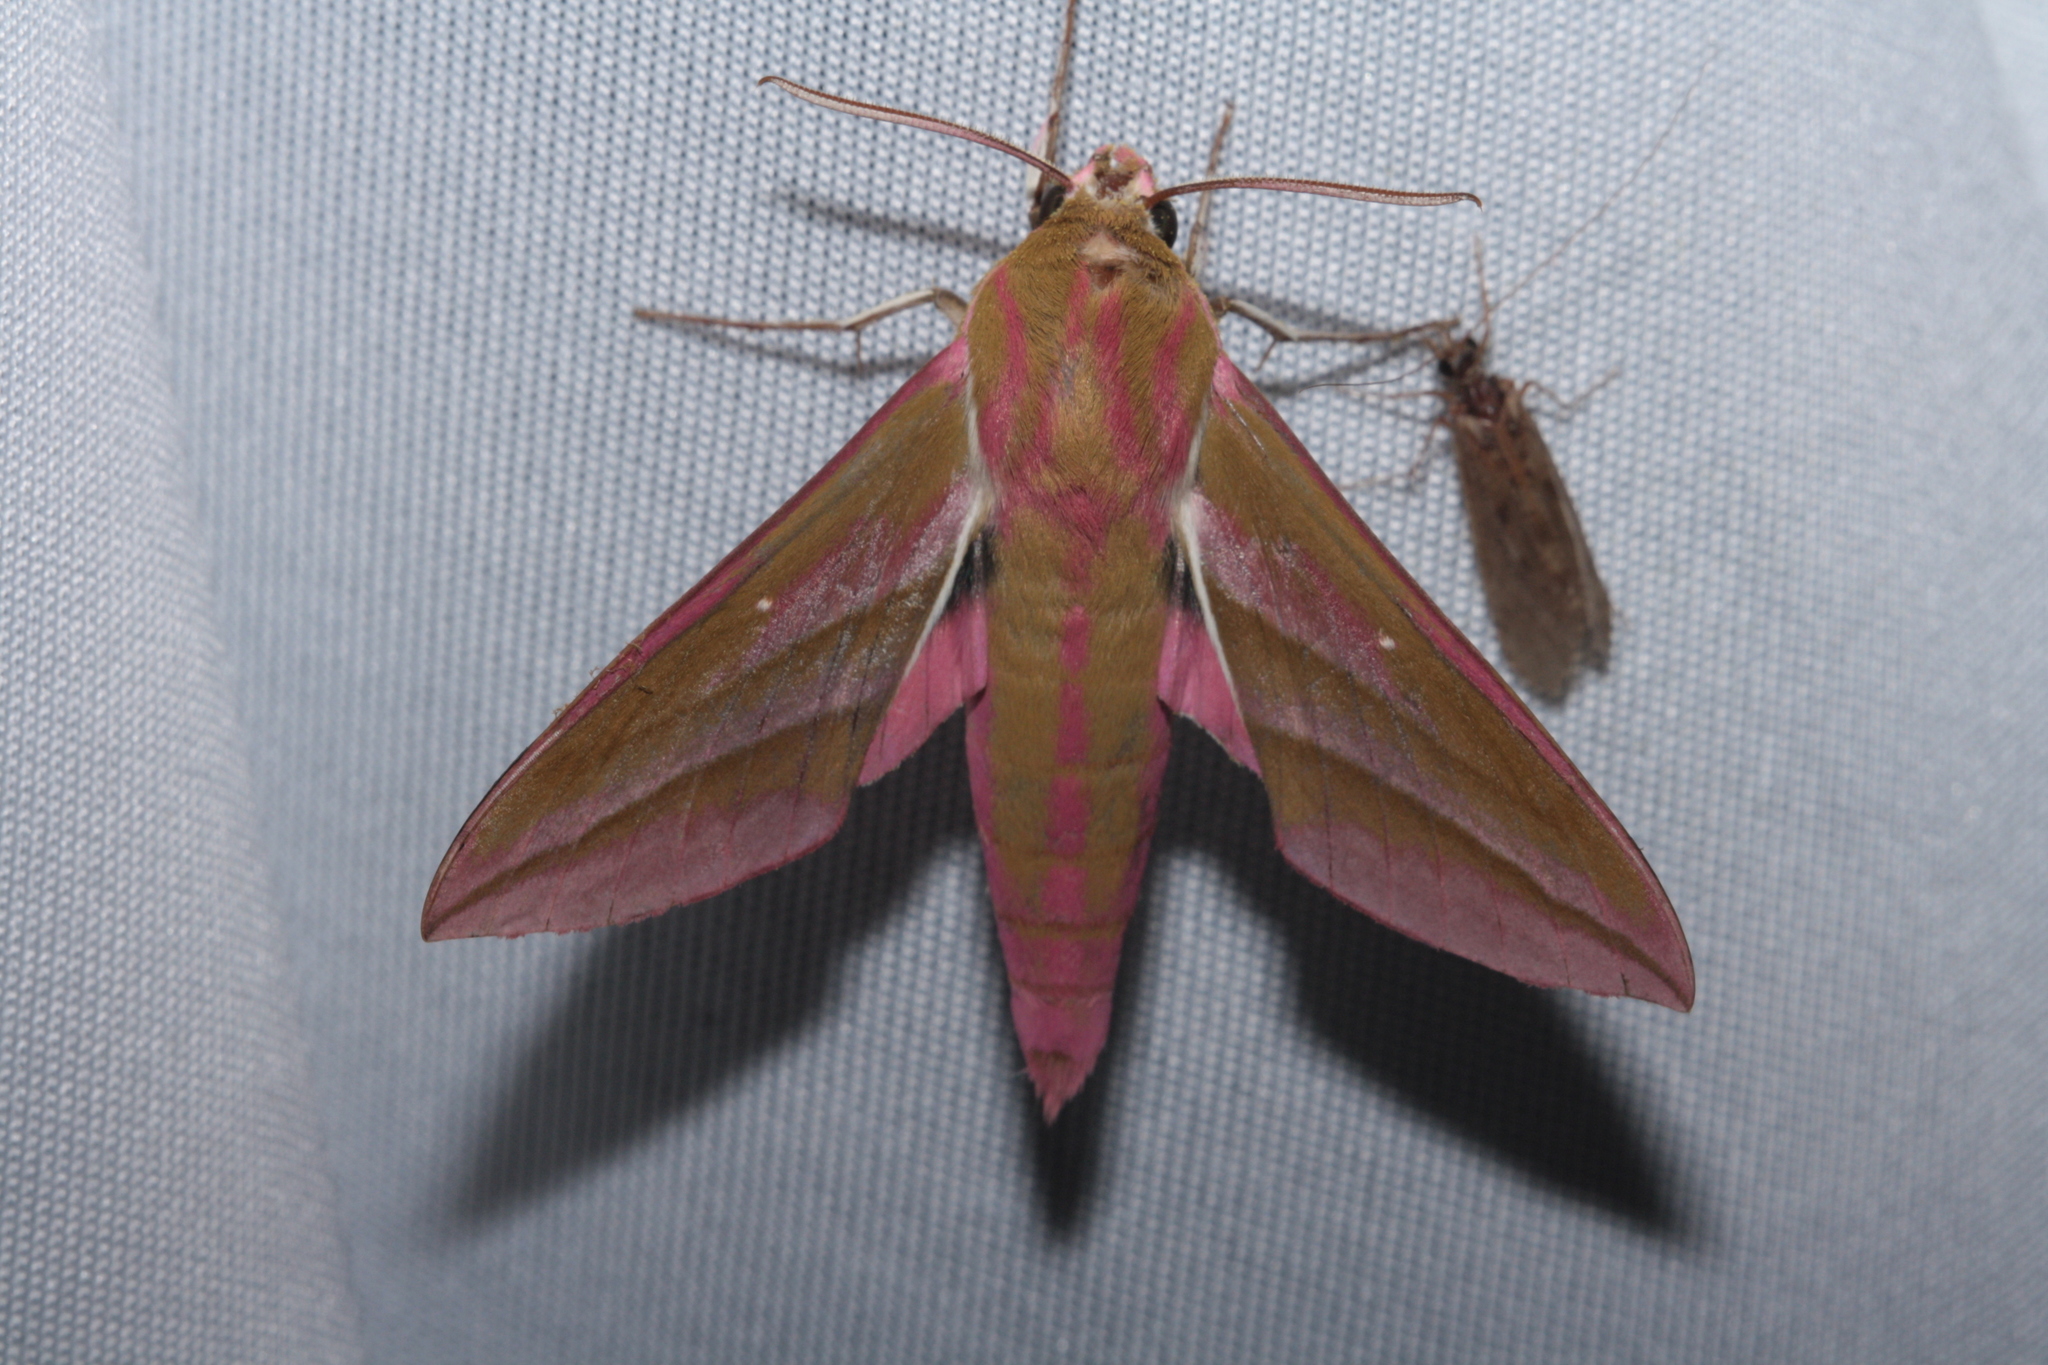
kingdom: Animalia
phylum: Arthropoda
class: Insecta
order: Lepidoptera
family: Sphingidae
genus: Deilephila
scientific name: Deilephila elpenor
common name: Elephant hawk-moth
